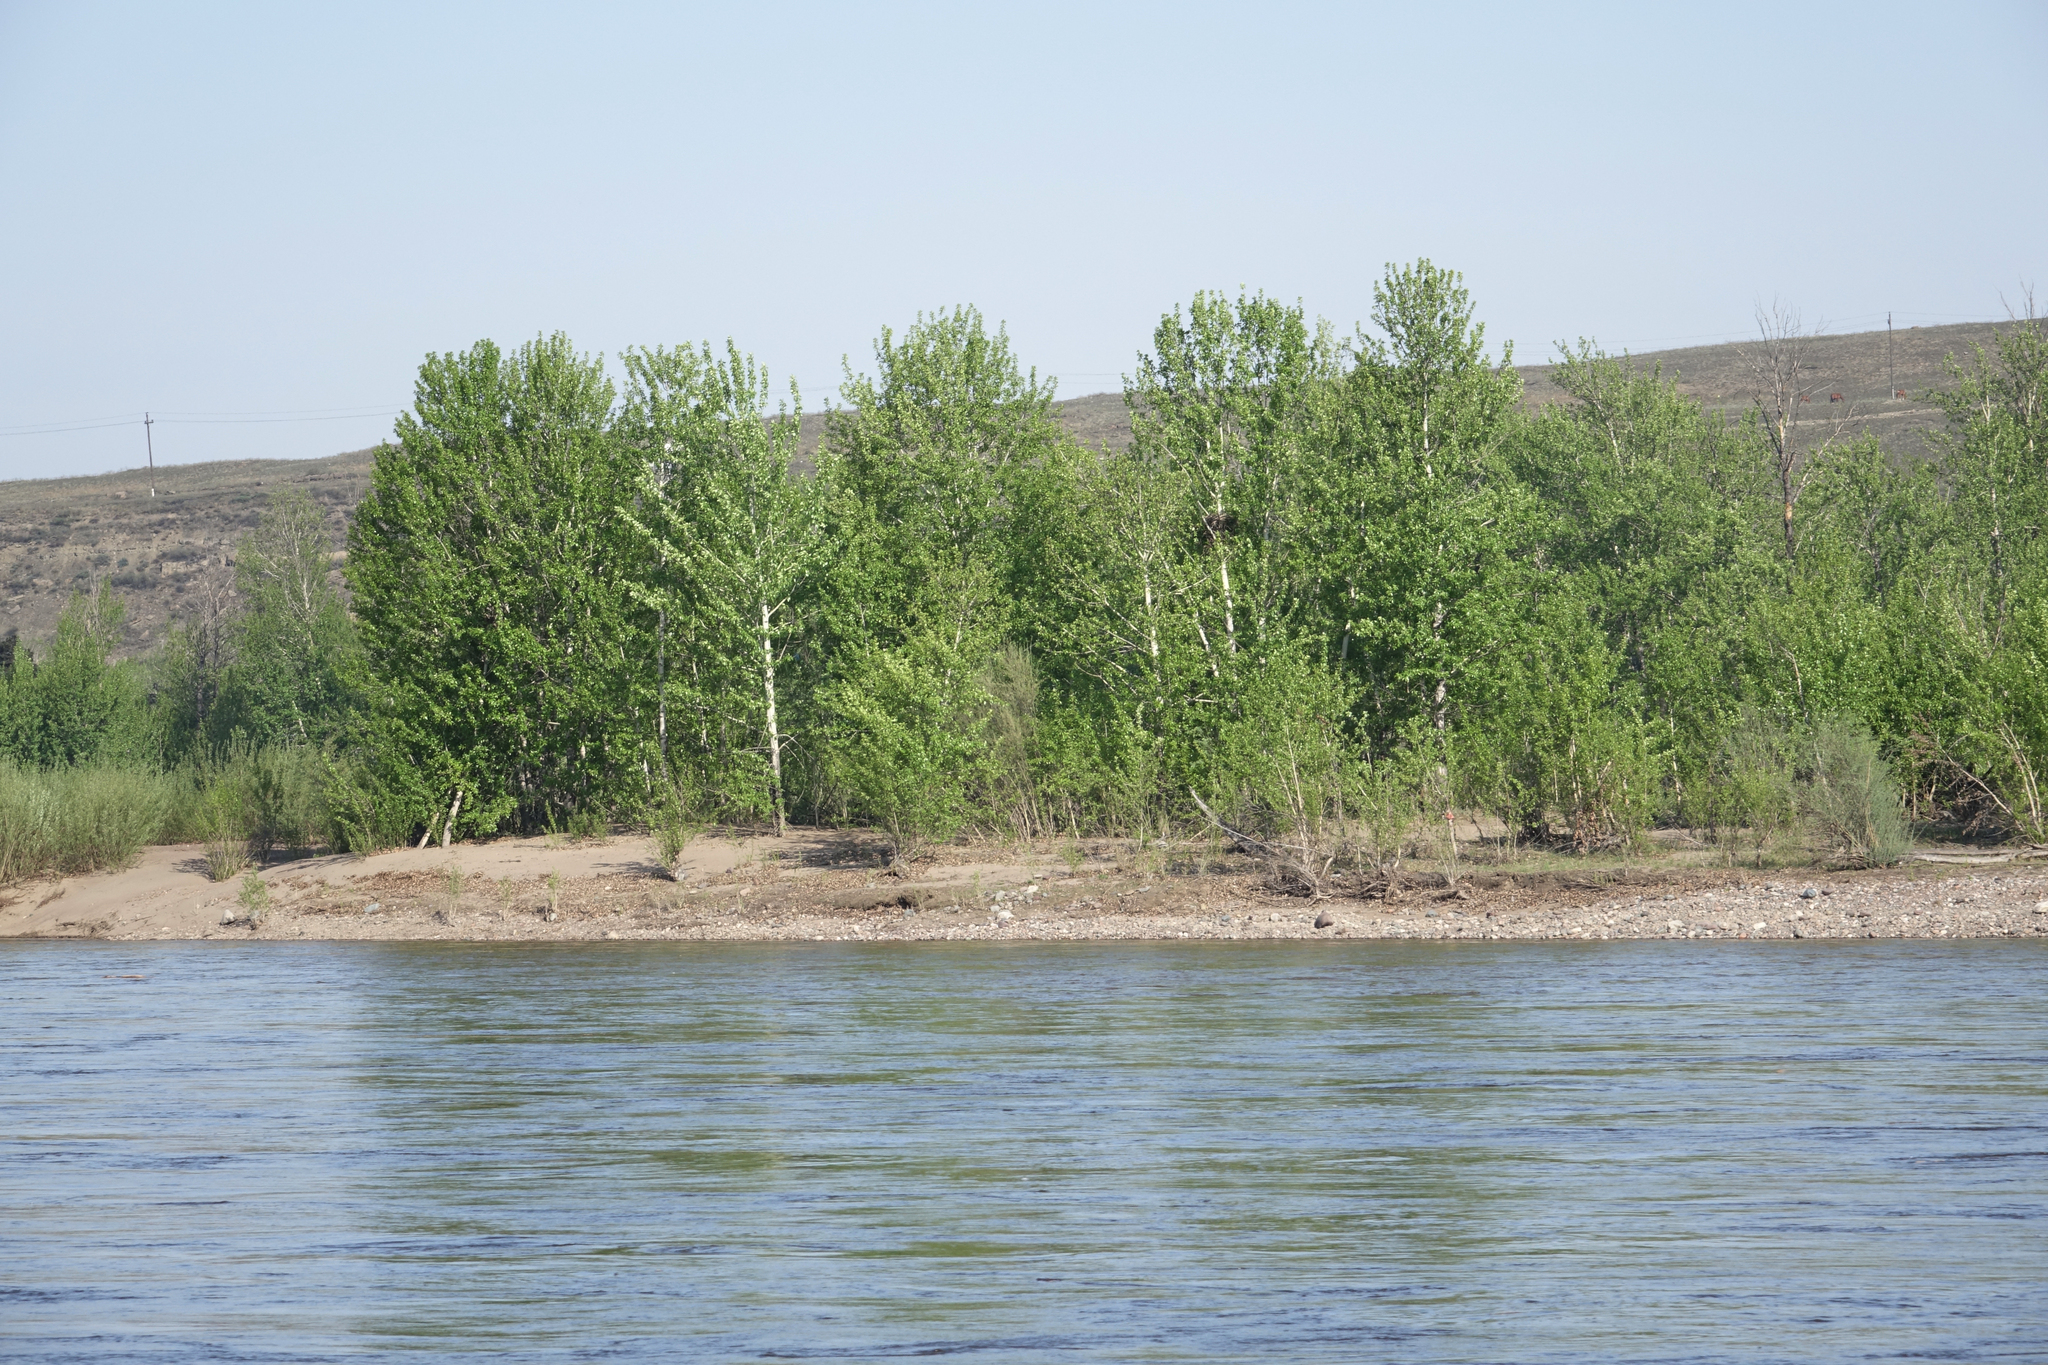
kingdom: Plantae
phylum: Tracheophyta
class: Magnoliopsida
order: Malpighiales
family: Salicaceae
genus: Populus
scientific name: Populus laurifolia
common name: Laurel-leaf poplar
